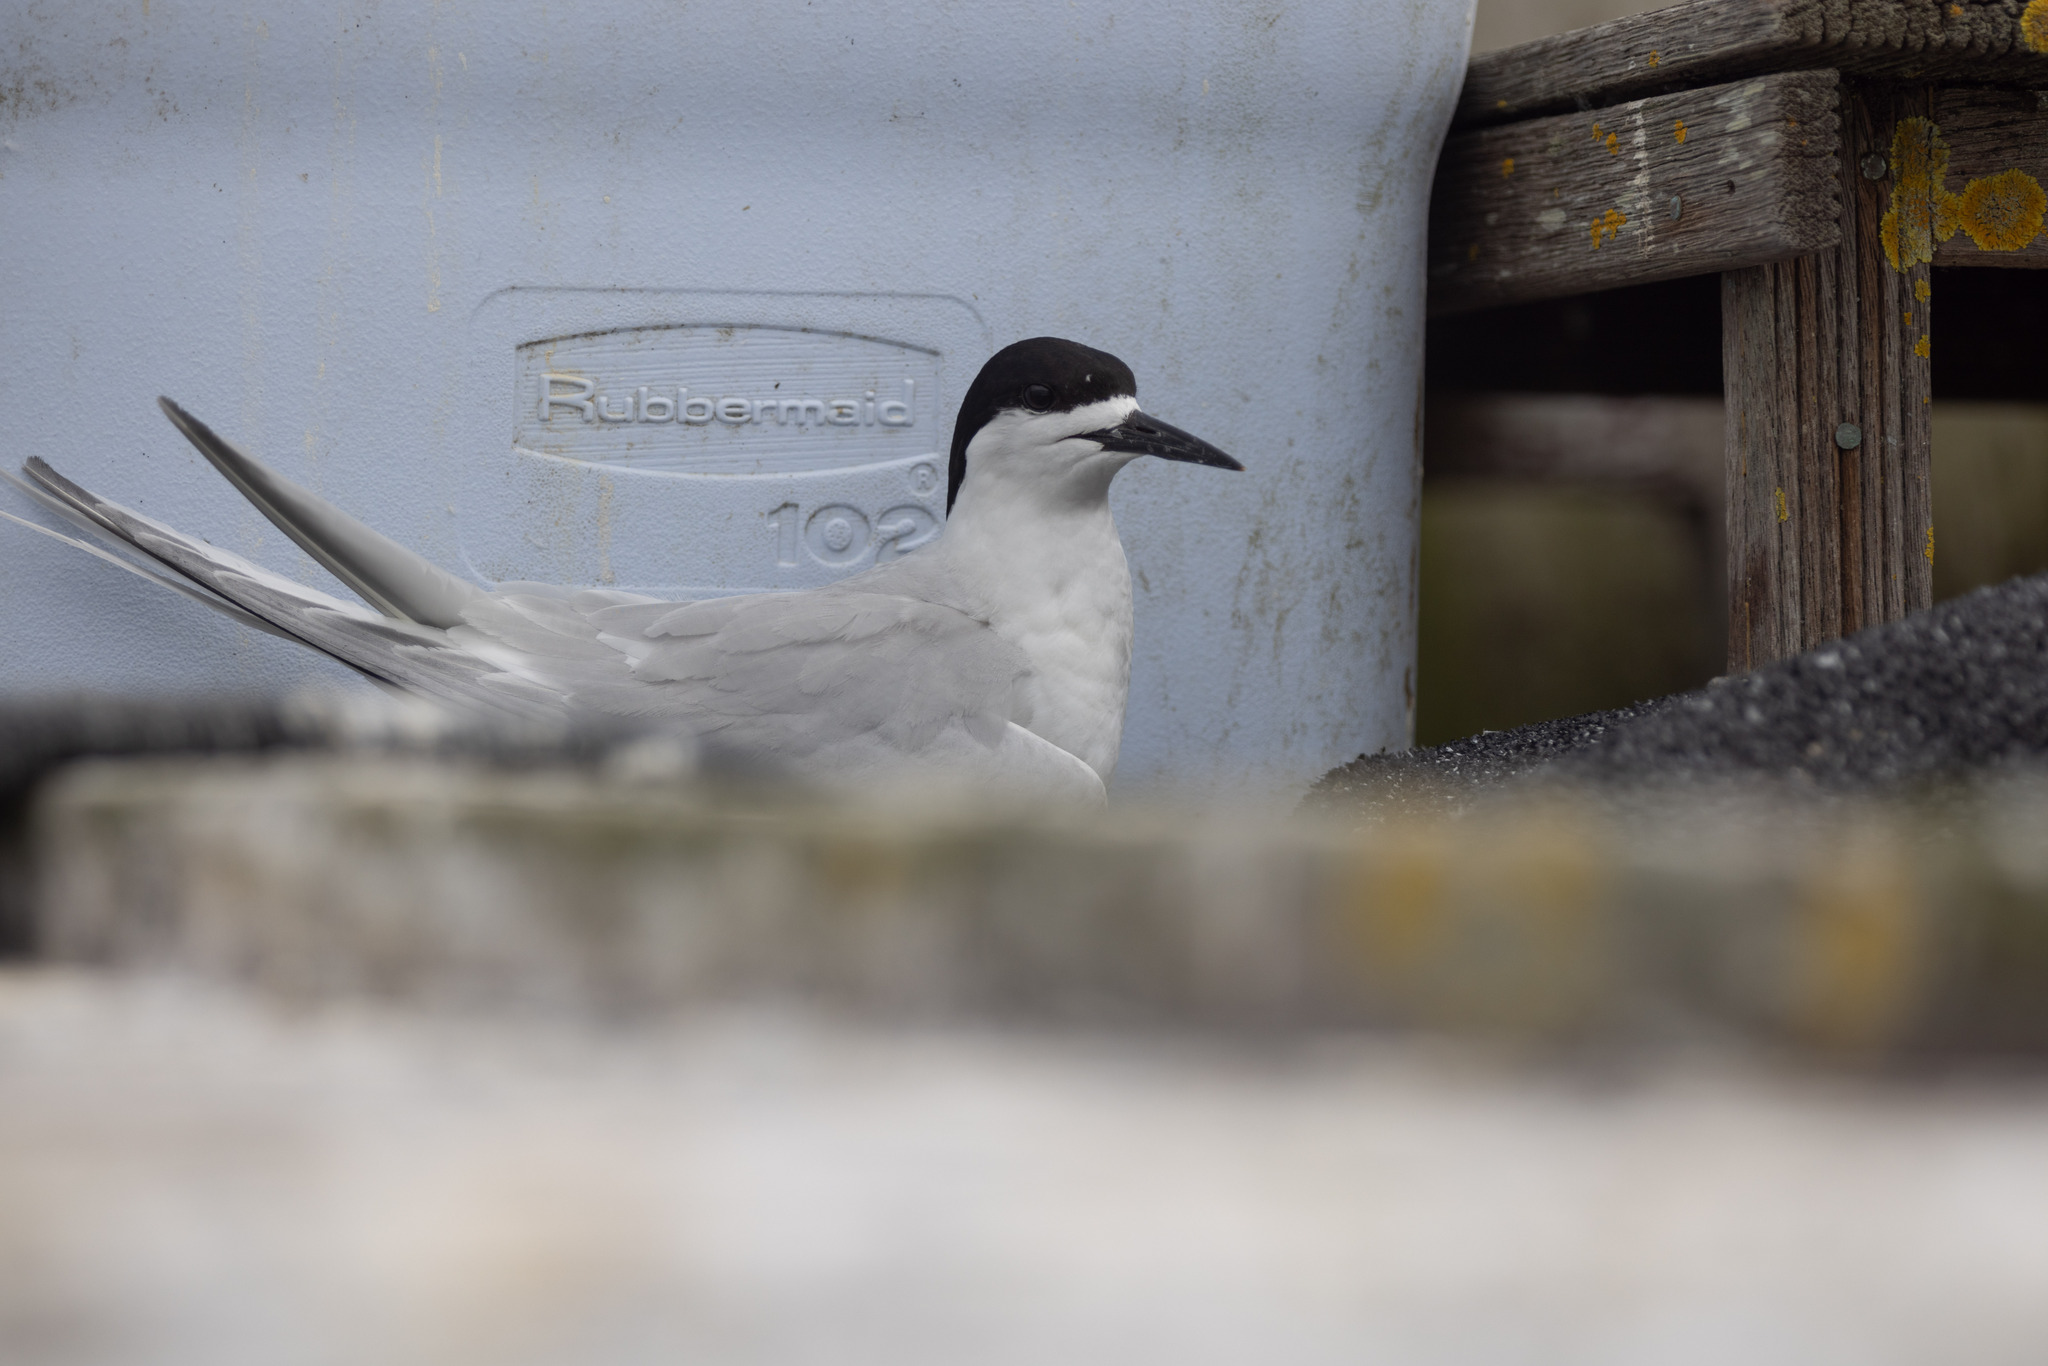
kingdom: Animalia
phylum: Chordata
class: Aves
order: Charadriiformes
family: Laridae
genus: Sterna
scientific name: Sterna striata
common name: White-fronted tern
